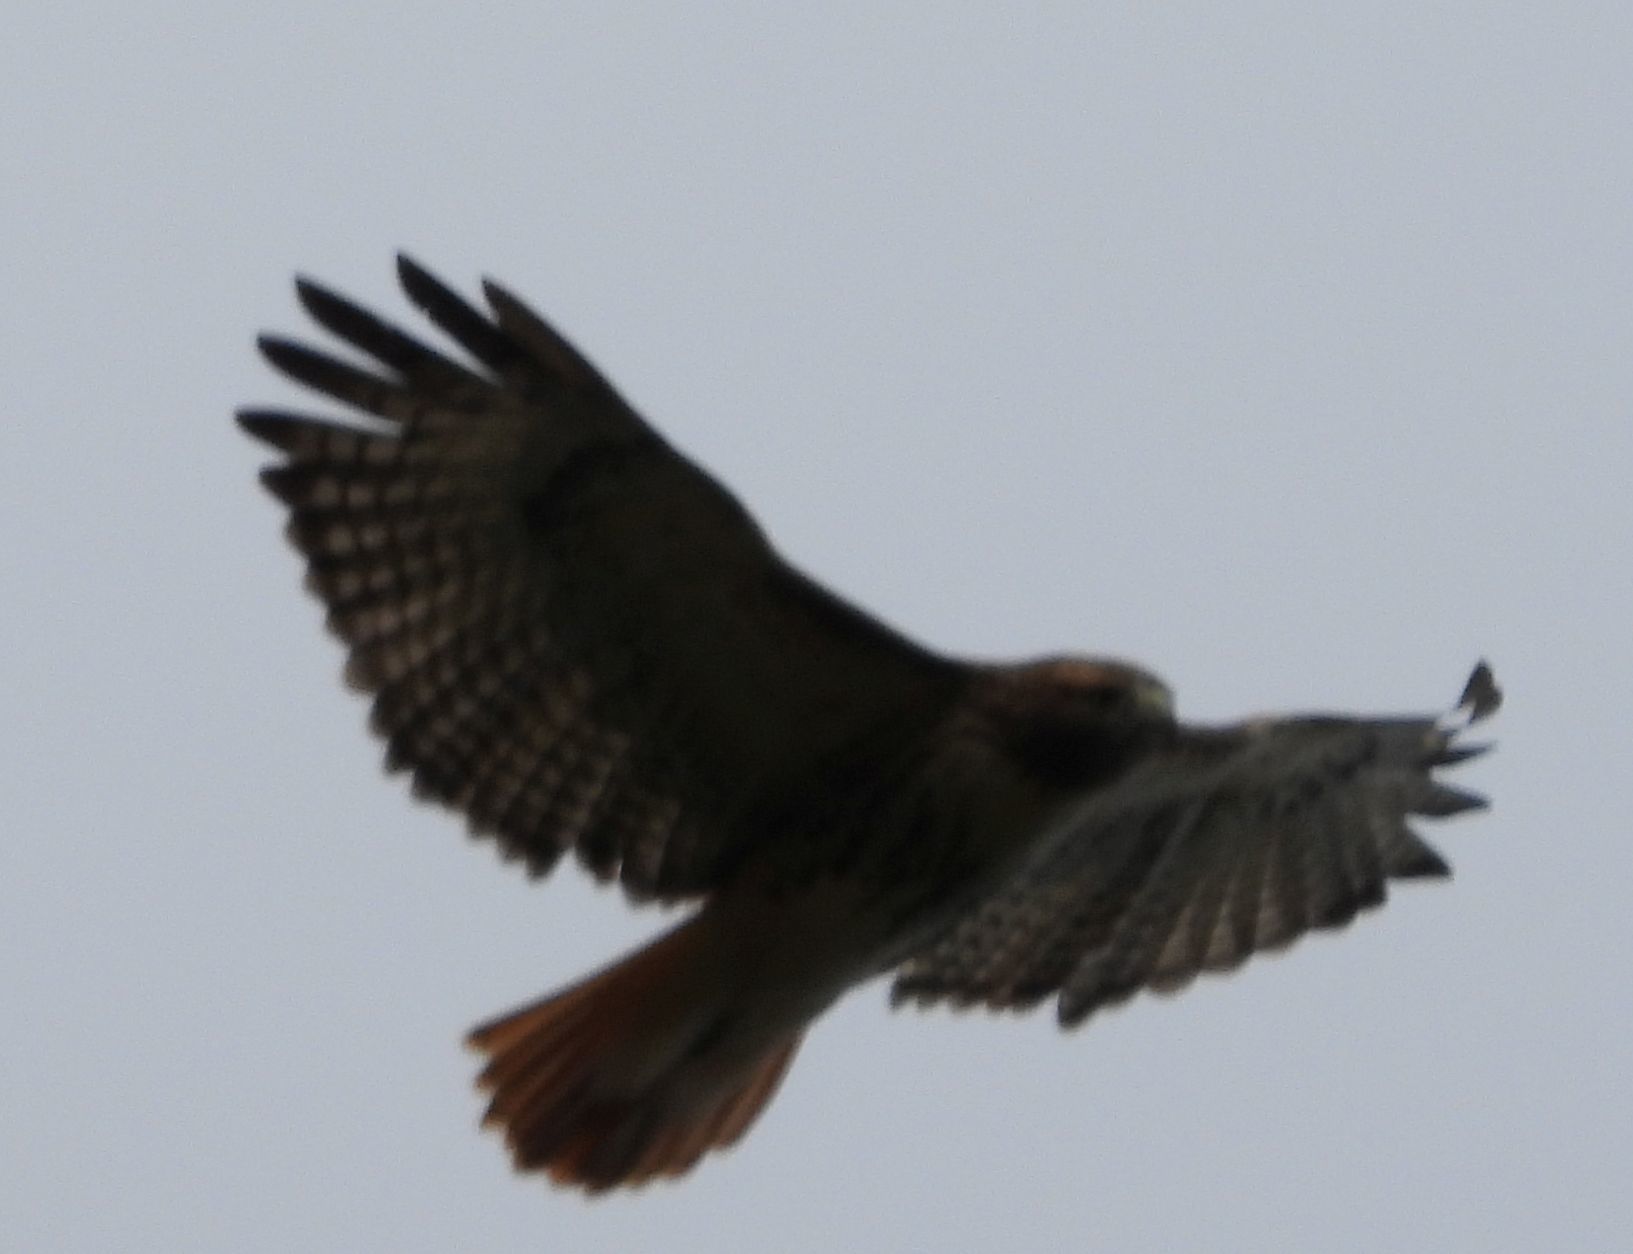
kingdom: Animalia
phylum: Chordata
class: Aves
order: Accipitriformes
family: Accipitridae
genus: Buteo
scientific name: Buteo jamaicensis
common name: Red-tailed hawk
